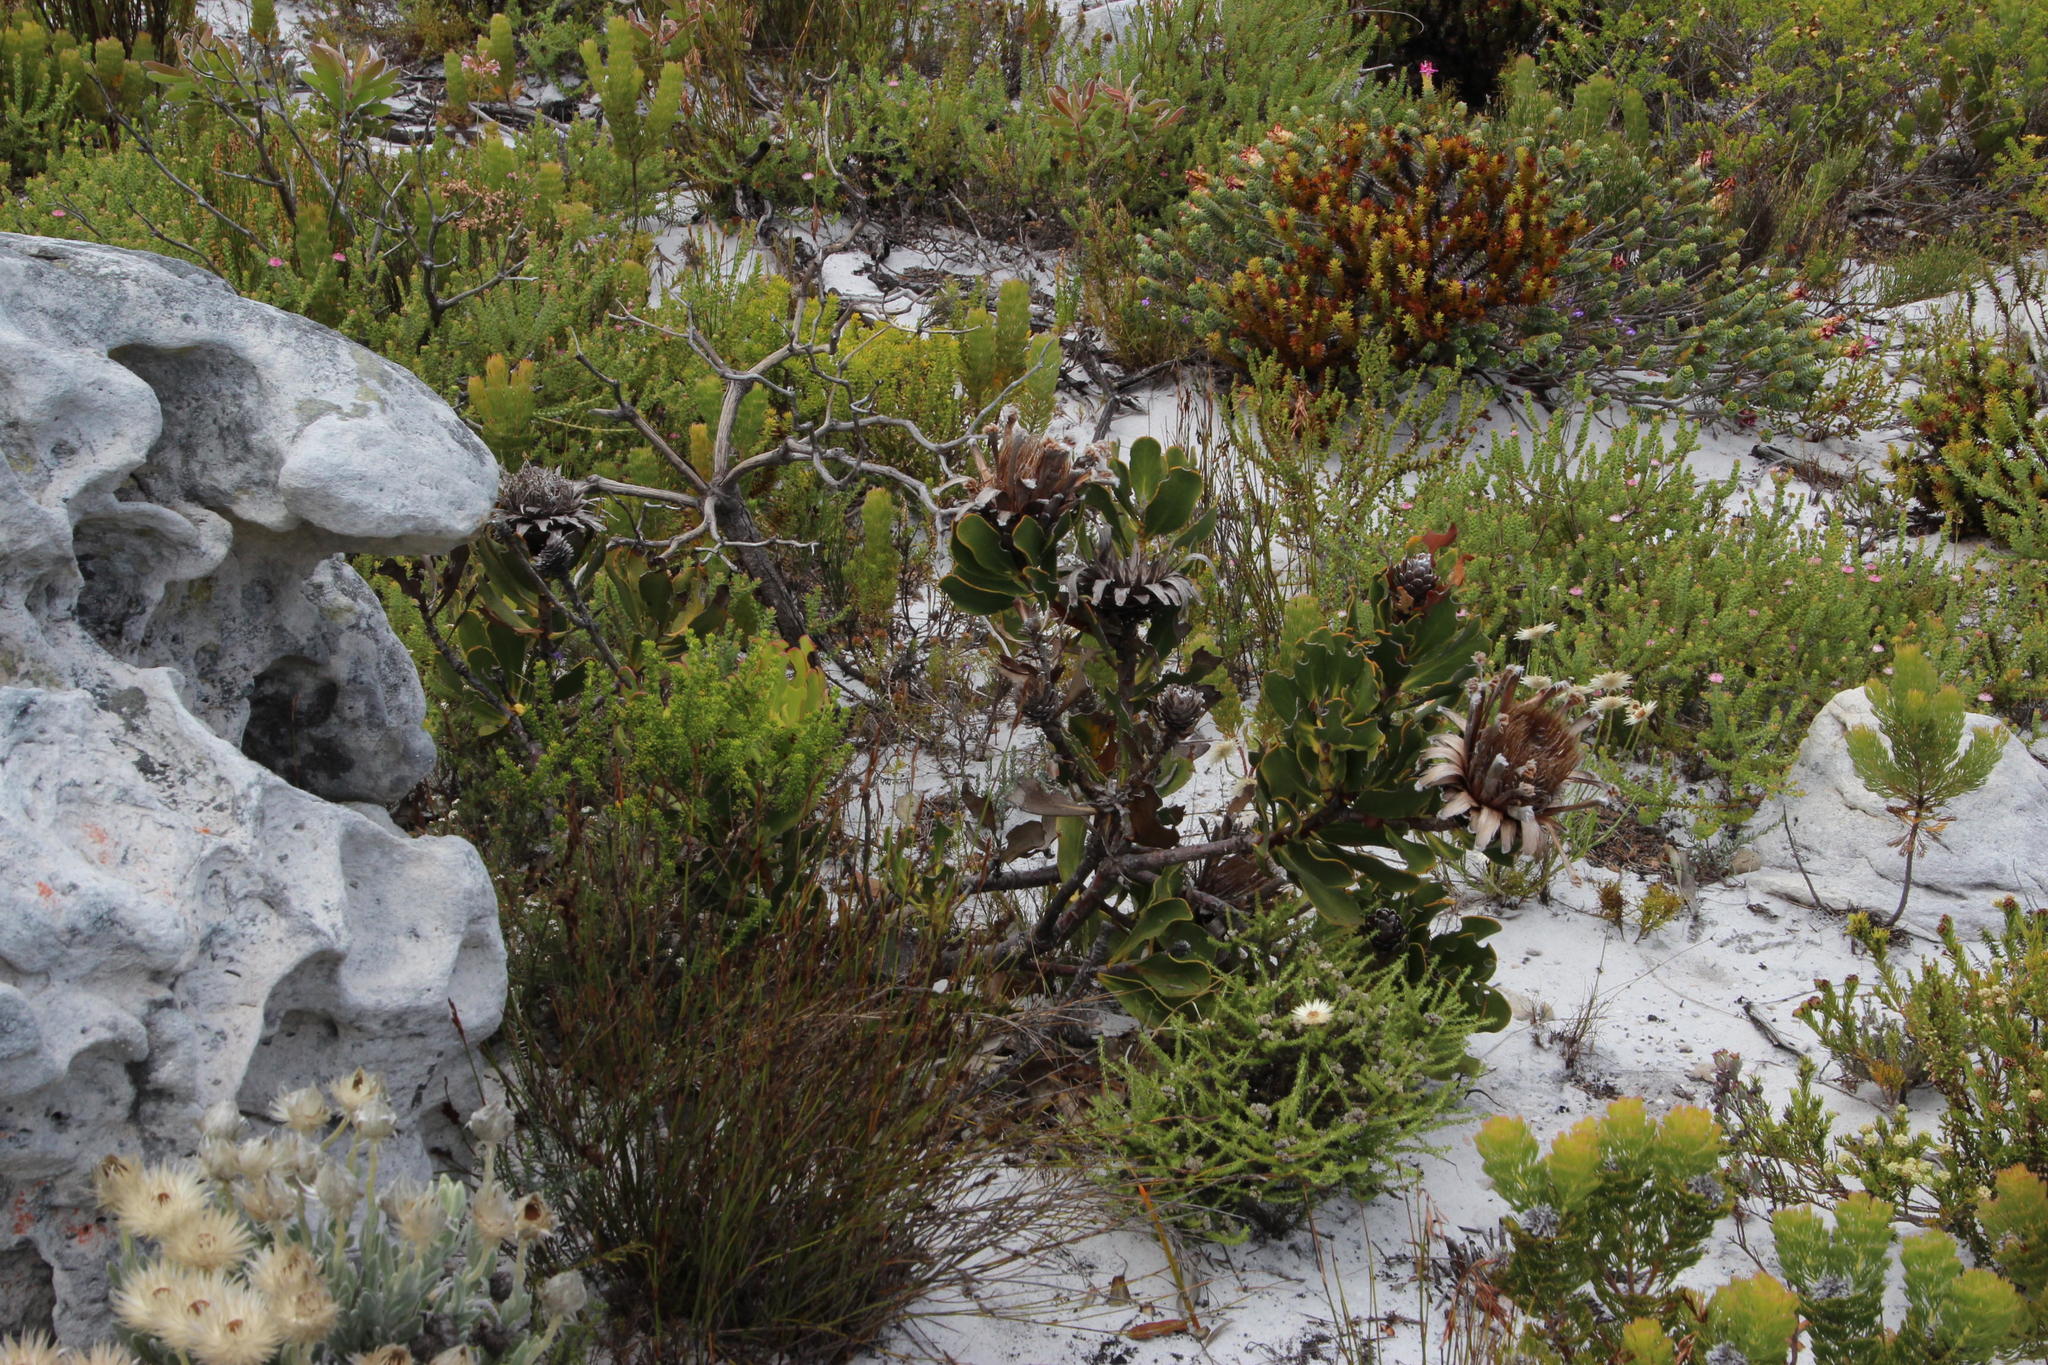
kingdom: Plantae
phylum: Tracheophyta
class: Magnoliopsida
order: Proteales
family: Proteaceae
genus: Protea
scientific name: Protea speciosa
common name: Brown-beard sugarbush
